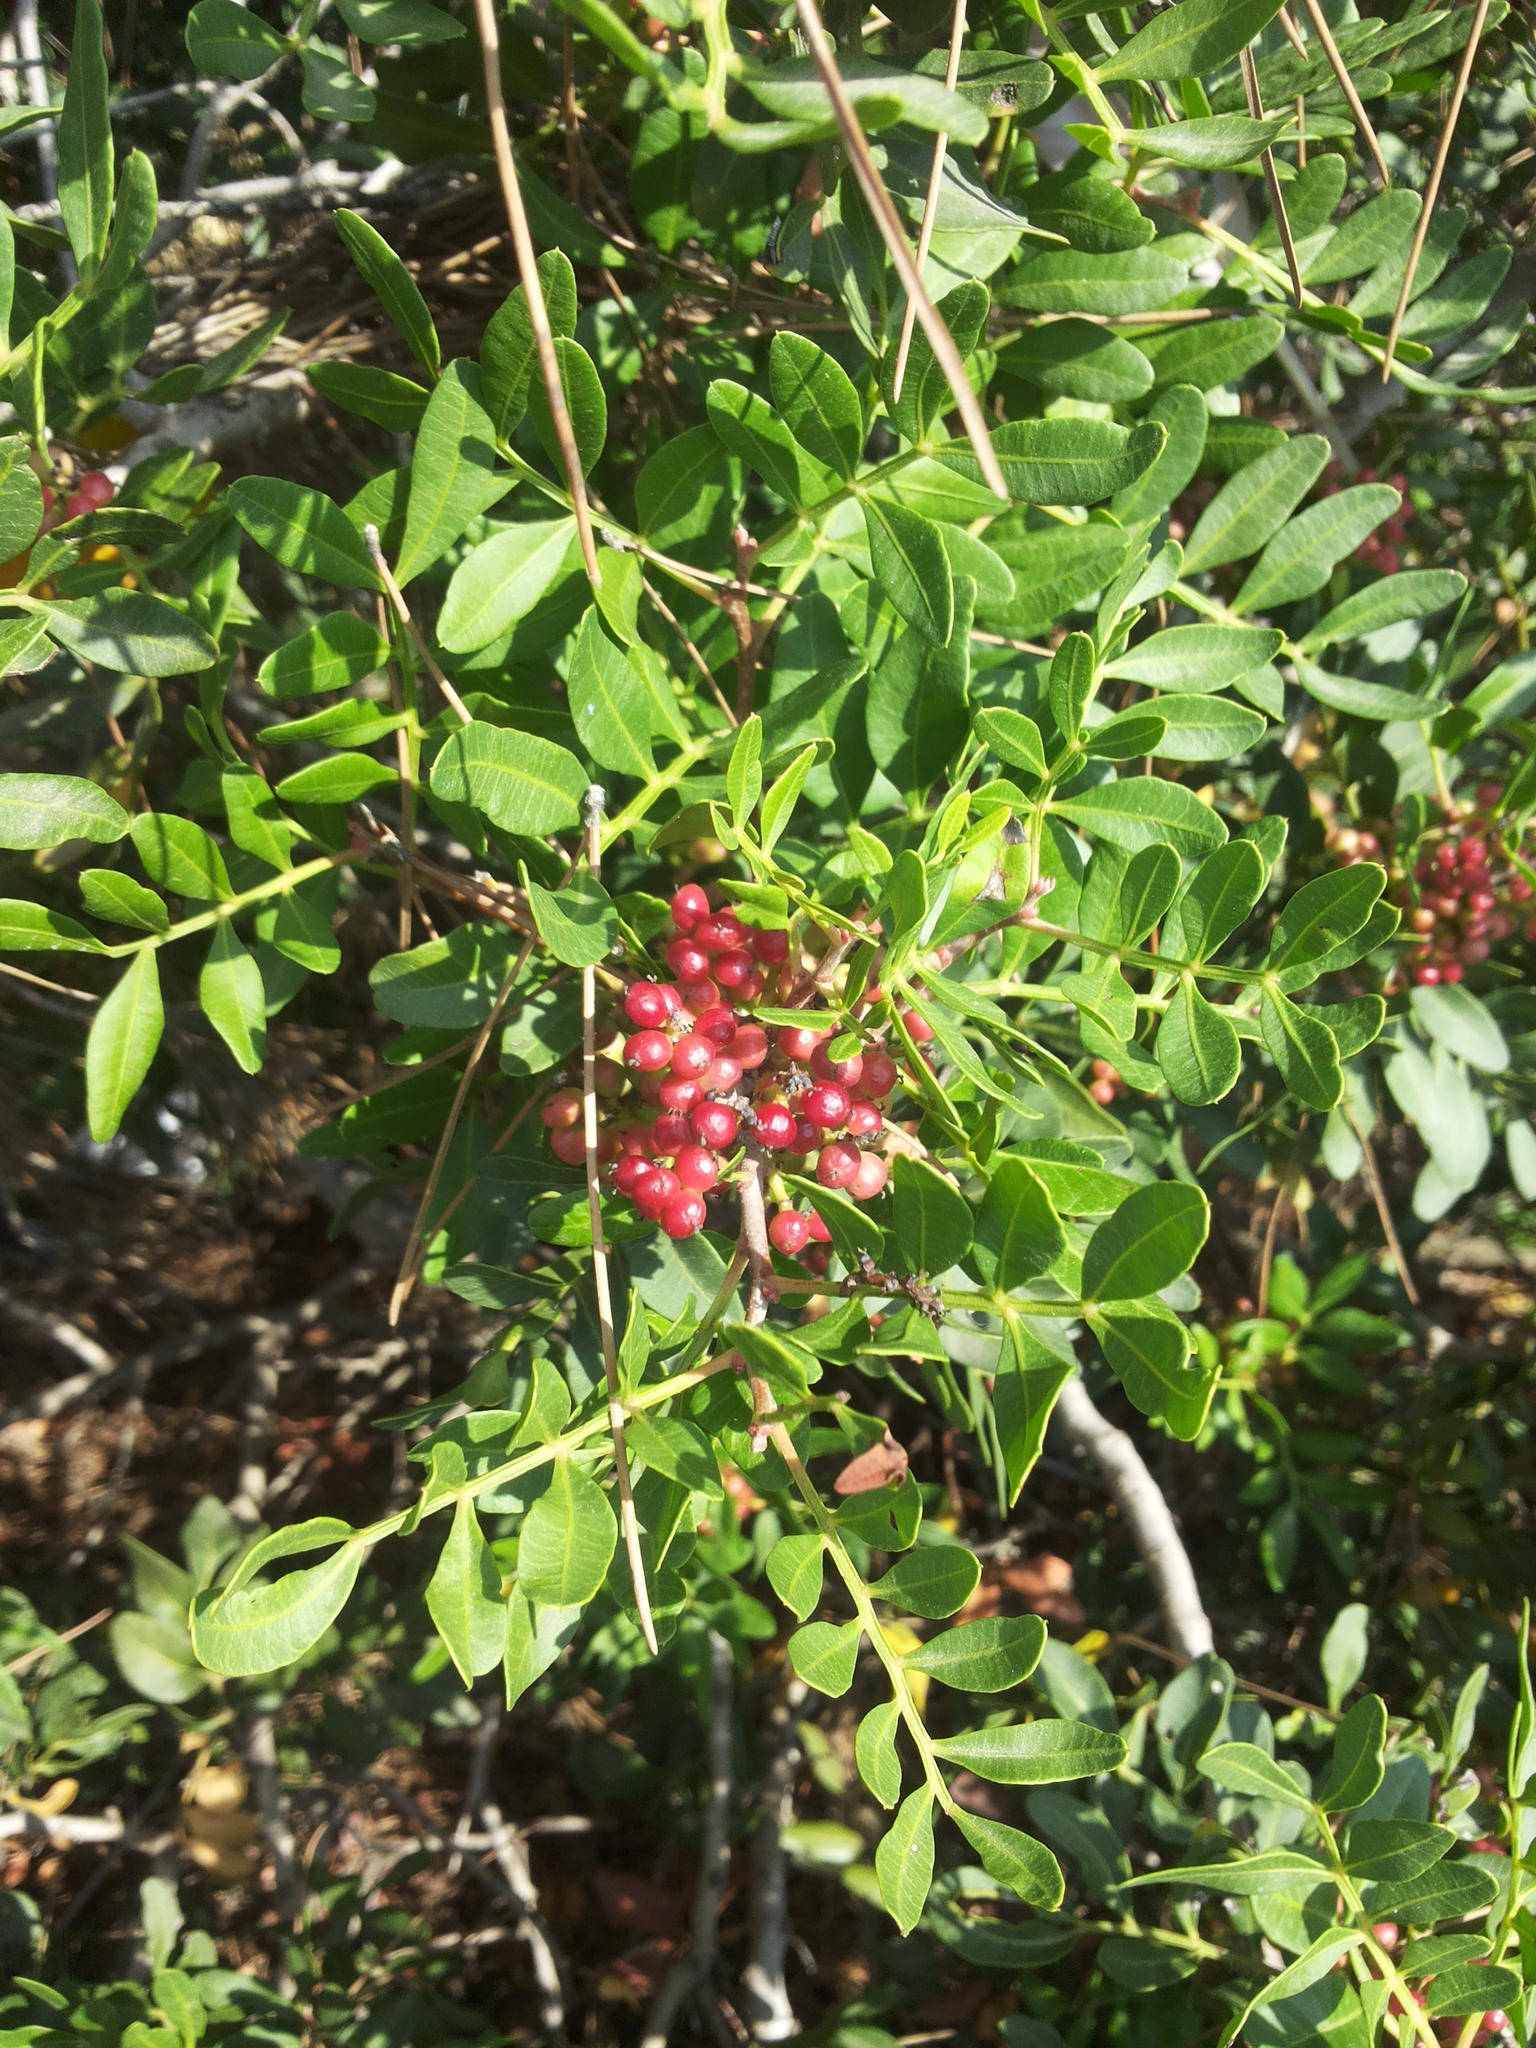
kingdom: Plantae
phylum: Tracheophyta
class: Magnoliopsida
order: Sapindales
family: Anacardiaceae
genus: Pistacia
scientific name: Pistacia lentiscus
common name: Lentisk
